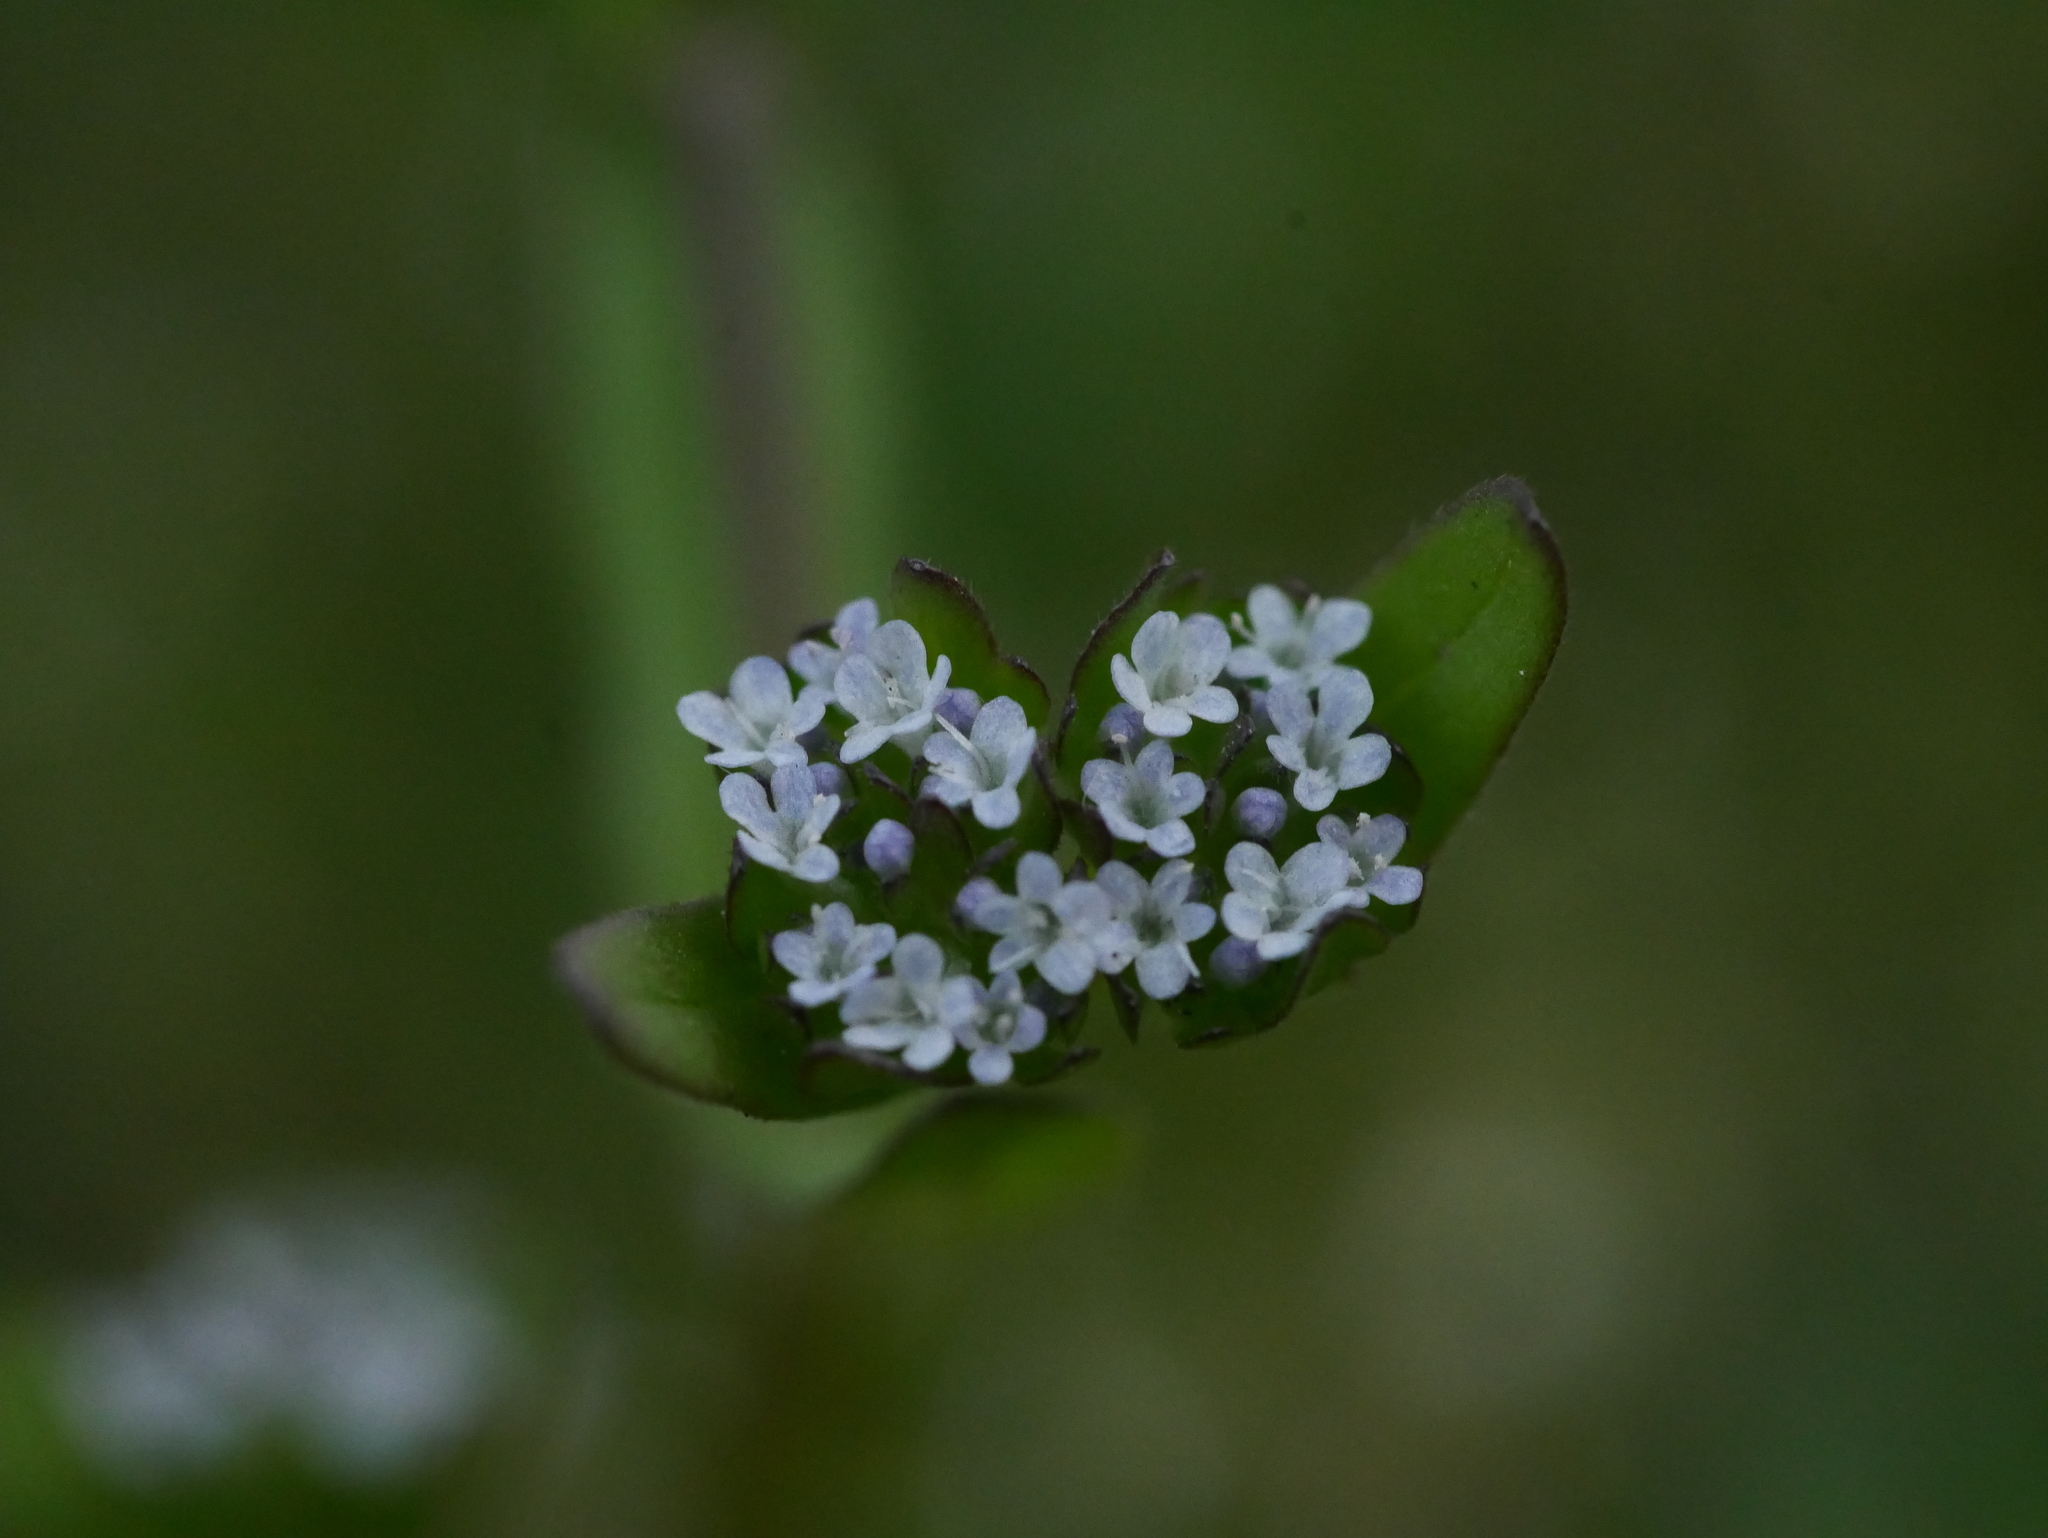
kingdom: Plantae
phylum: Tracheophyta
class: Magnoliopsida
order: Dipsacales
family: Caprifoliaceae
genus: Valerianella
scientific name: Valerianella locusta
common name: Common cornsalad
